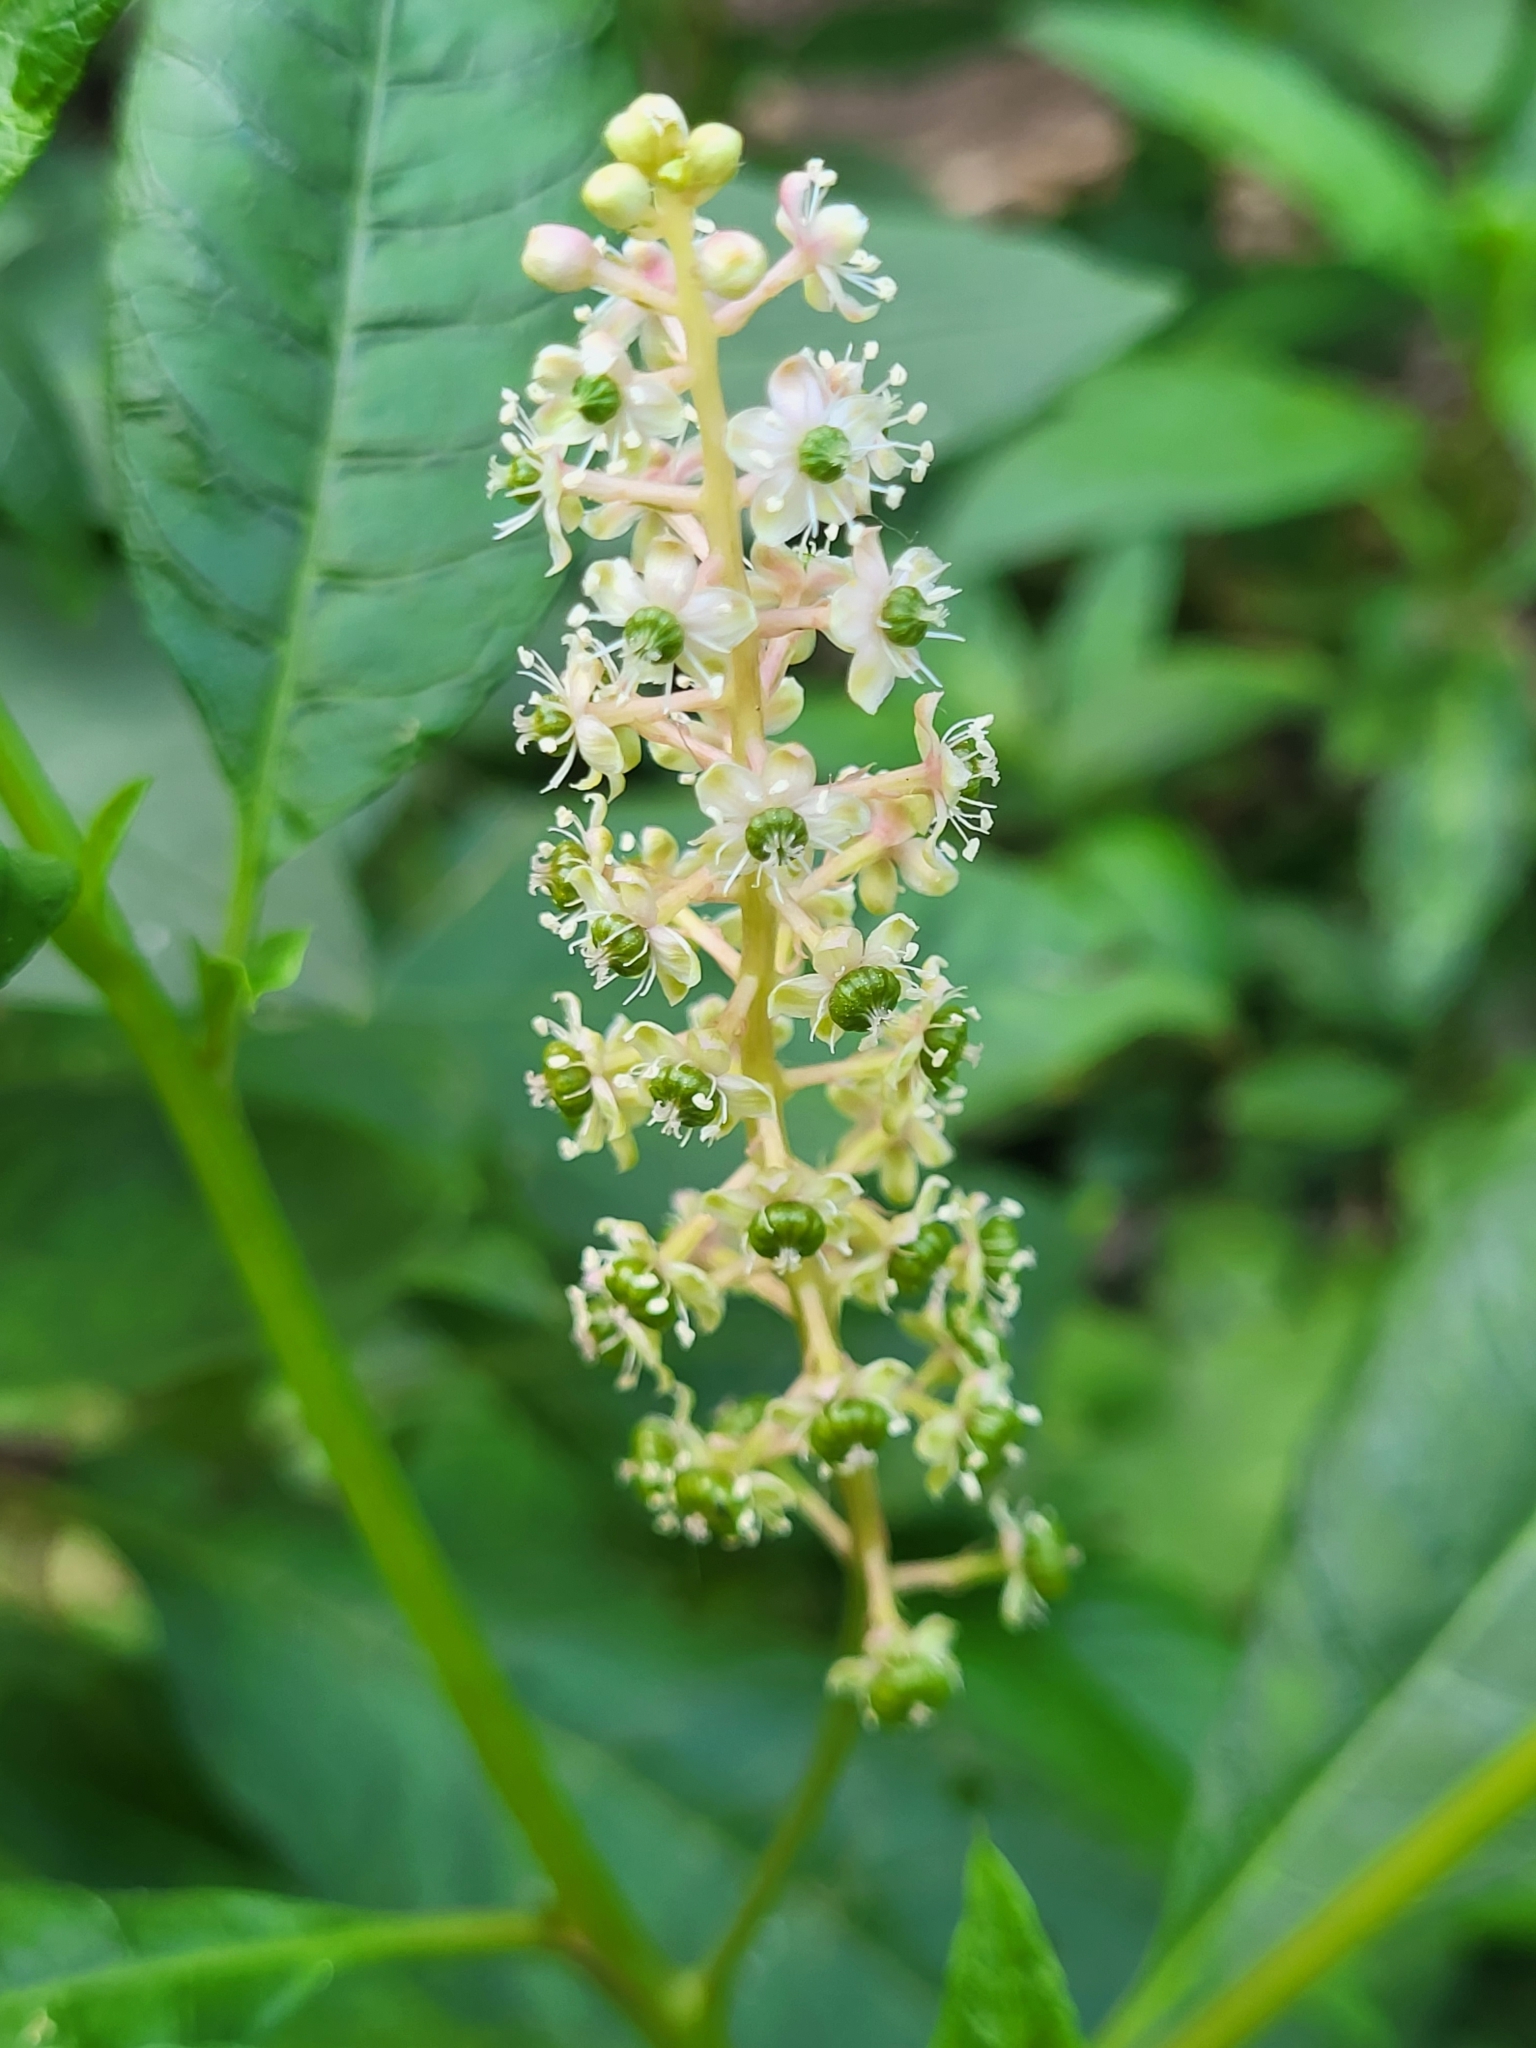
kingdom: Plantae
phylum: Tracheophyta
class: Magnoliopsida
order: Caryophyllales
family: Phytolaccaceae
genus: Phytolacca
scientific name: Phytolacca americana
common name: American pokeweed
